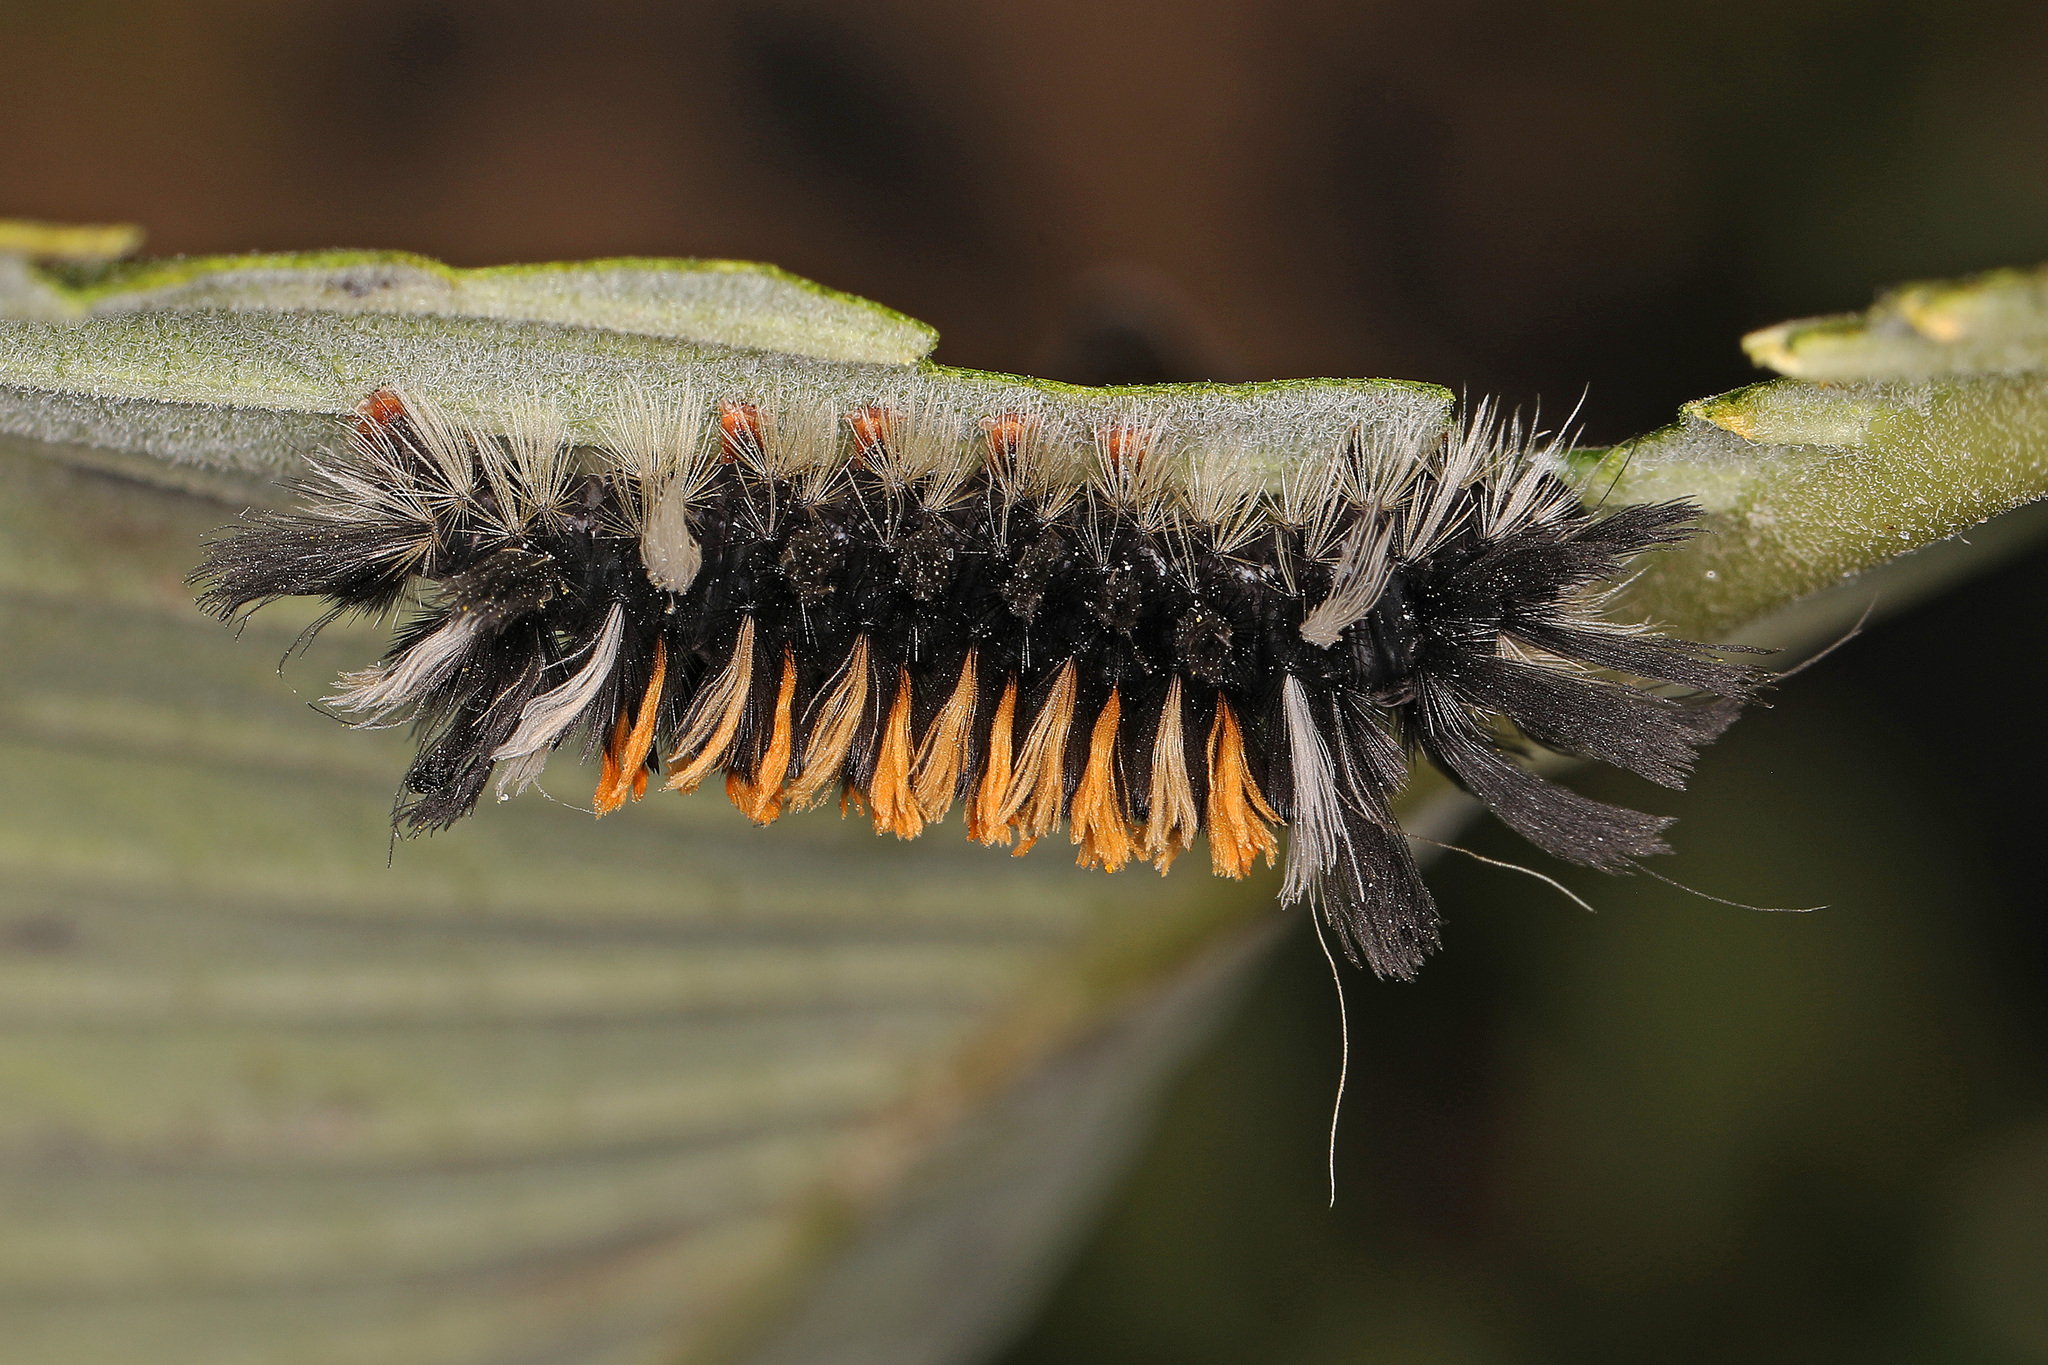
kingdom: Animalia
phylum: Arthropoda
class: Insecta
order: Lepidoptera
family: Erebidae
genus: Euchaetes
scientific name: Euchaetes egle
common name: Milkweed tussock moth
